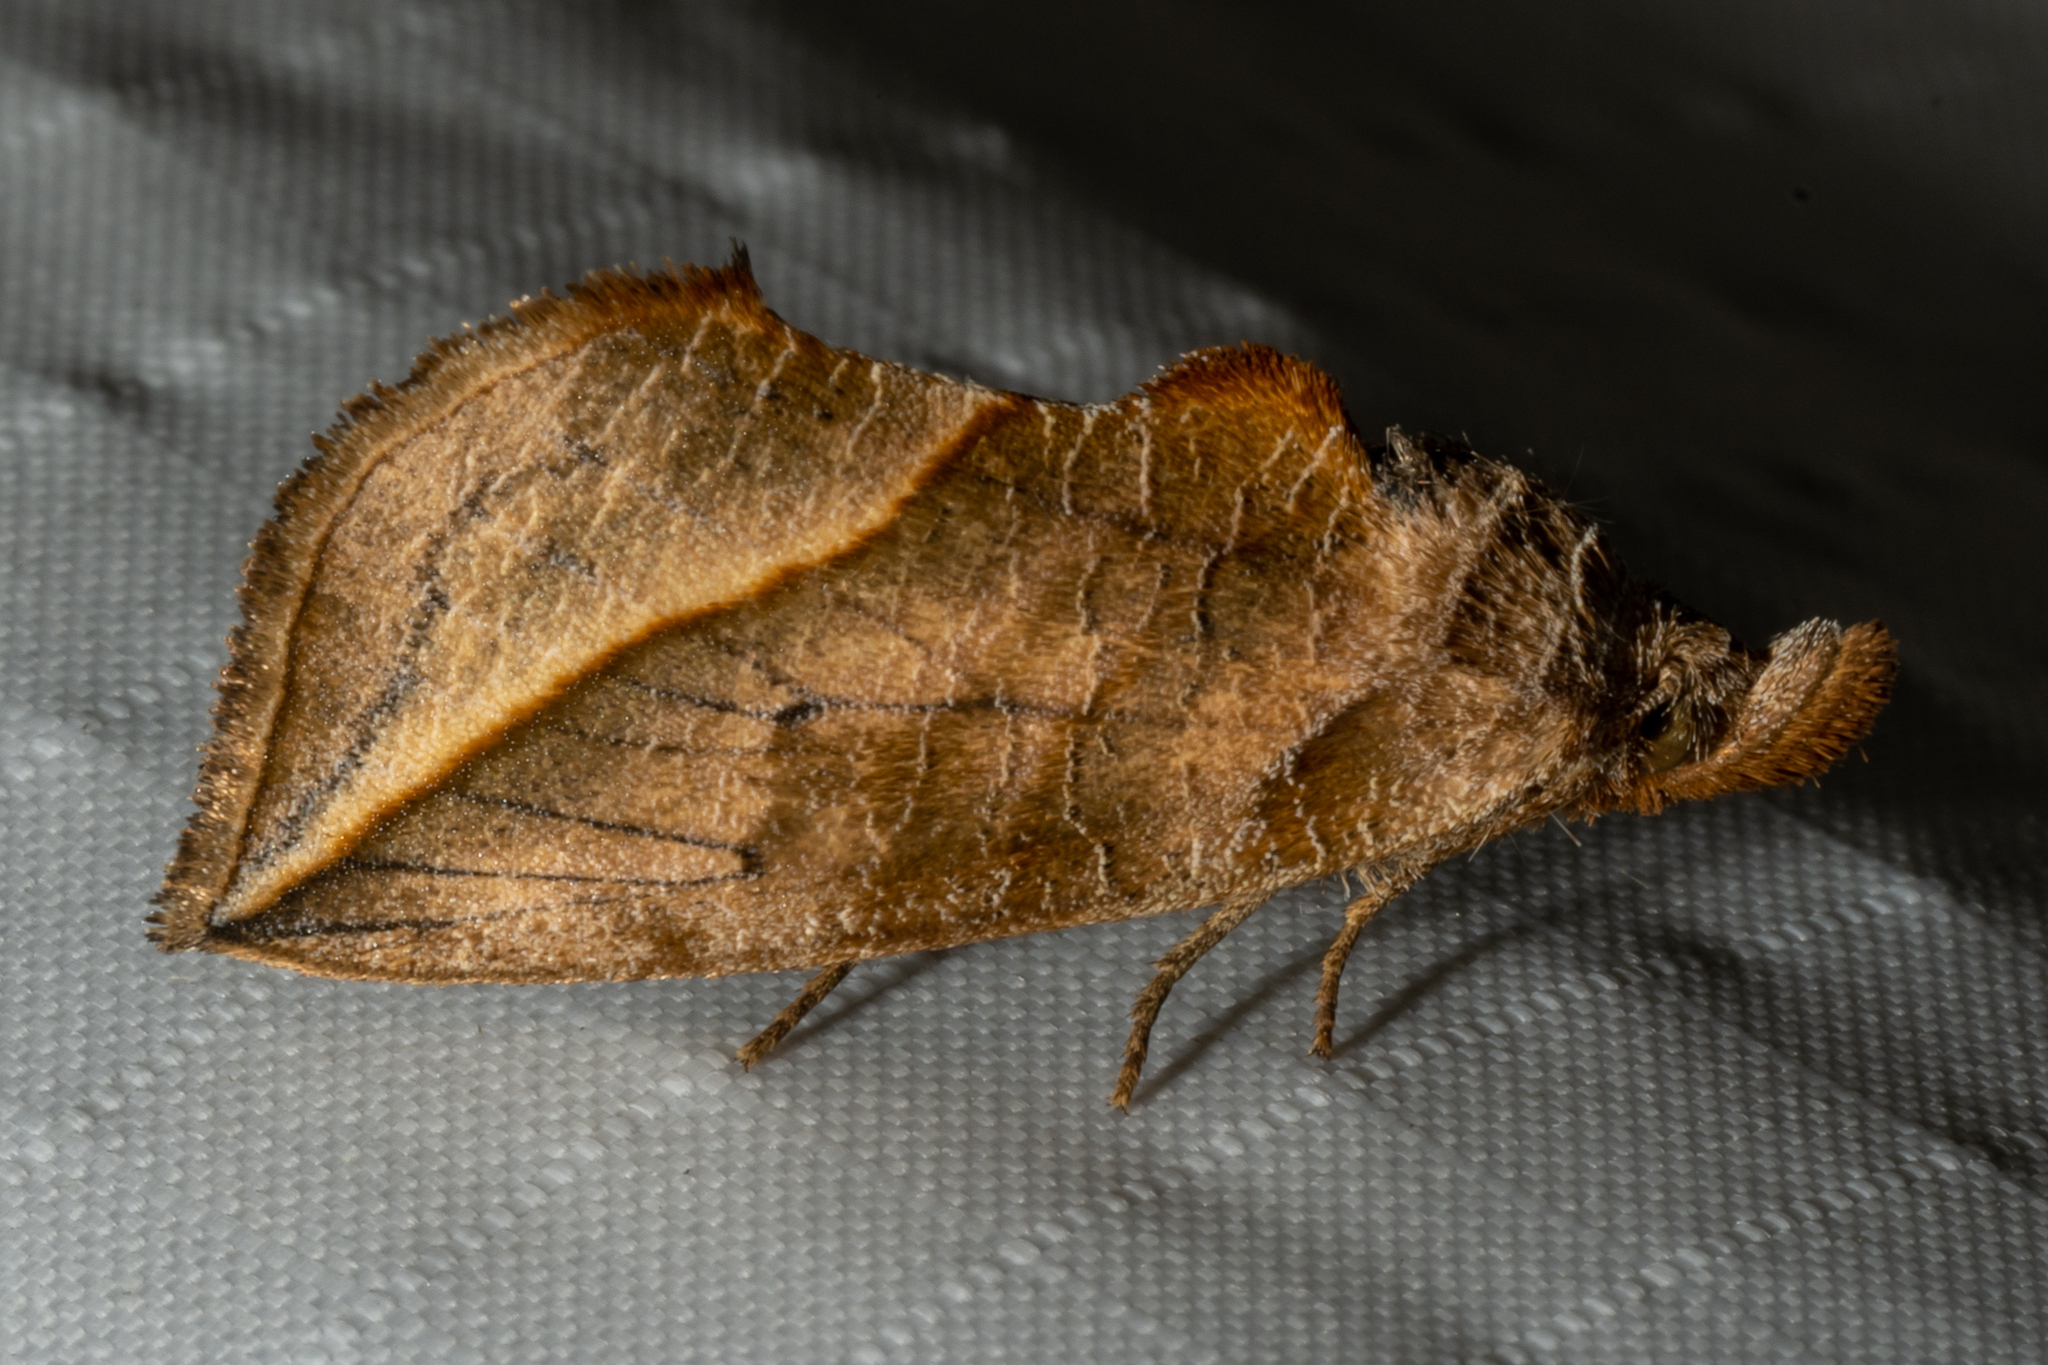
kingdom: Animalia
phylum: Arthropoda
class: Insecta
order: Lepidoptera
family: Erebidae
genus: Calyptra
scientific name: Calyptra canadensis
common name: Canadian owlet
